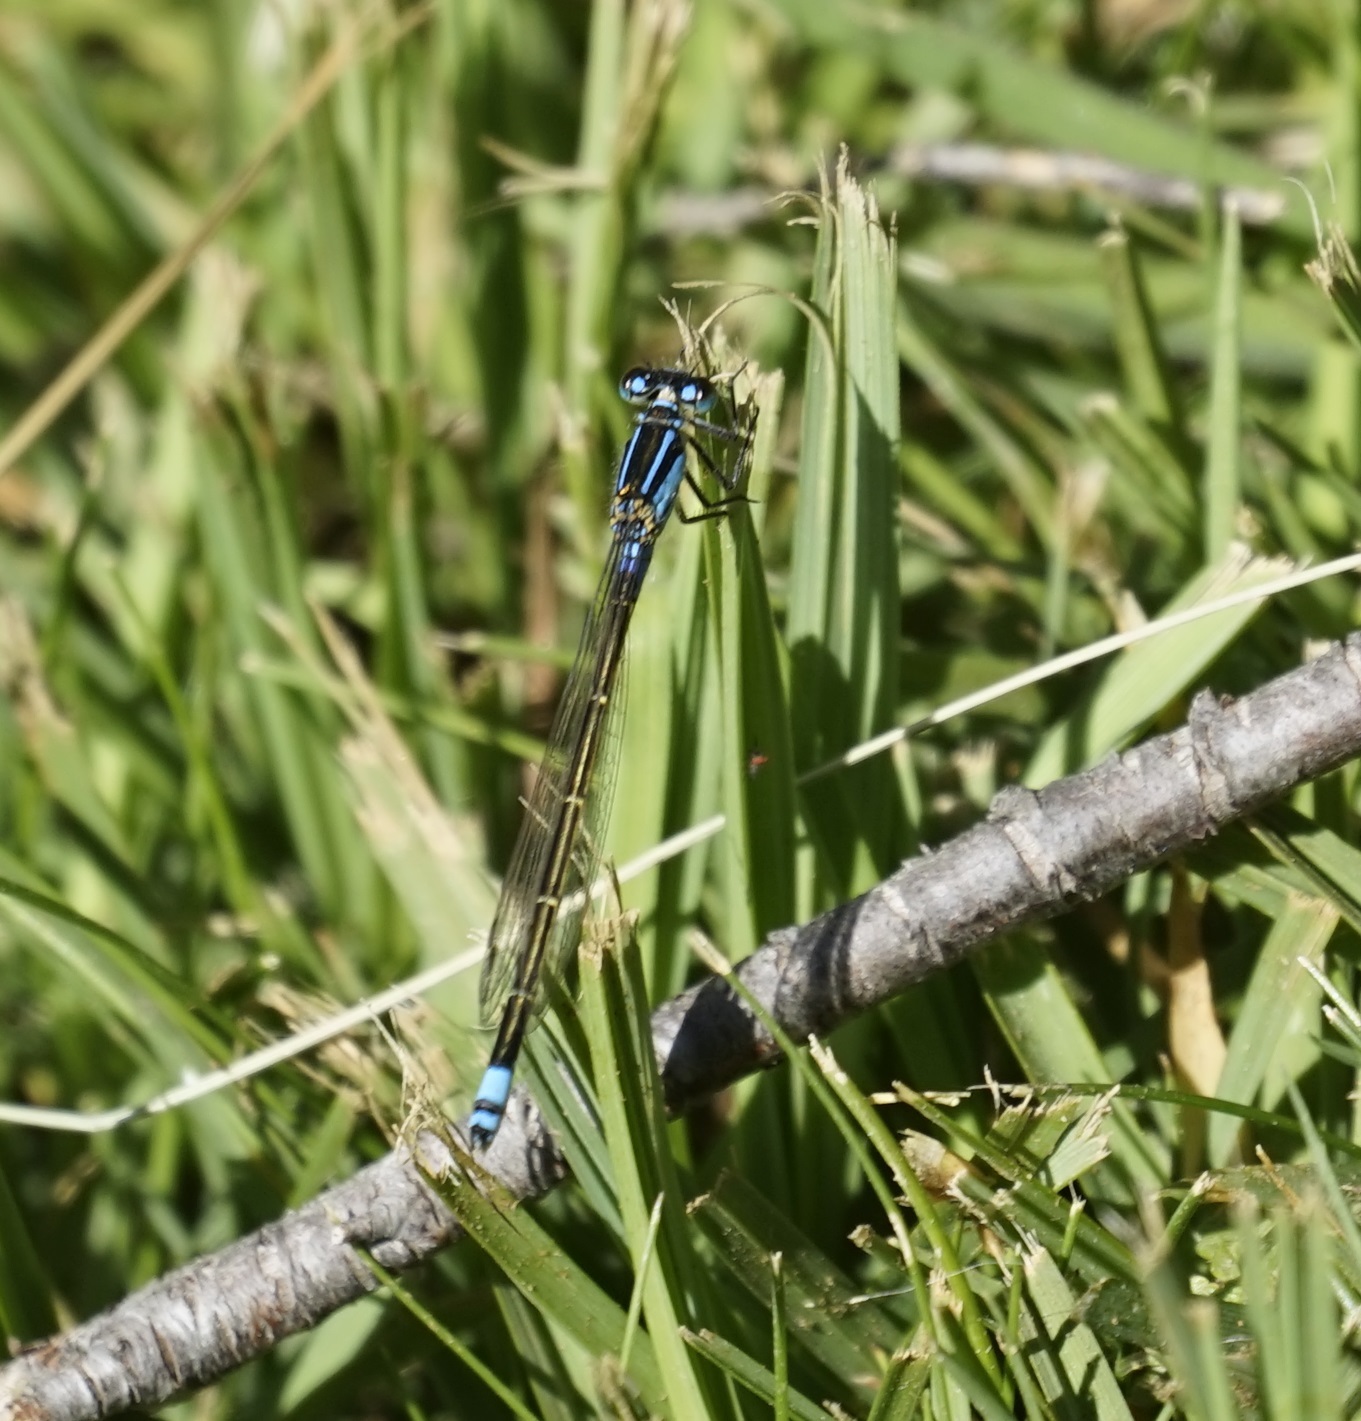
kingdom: Animalia
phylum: Arthropoda
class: Insecta
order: Odonata
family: Coenagrionidae
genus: Ischnura
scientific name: Ischnura heterosticta
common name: Common bluetail
